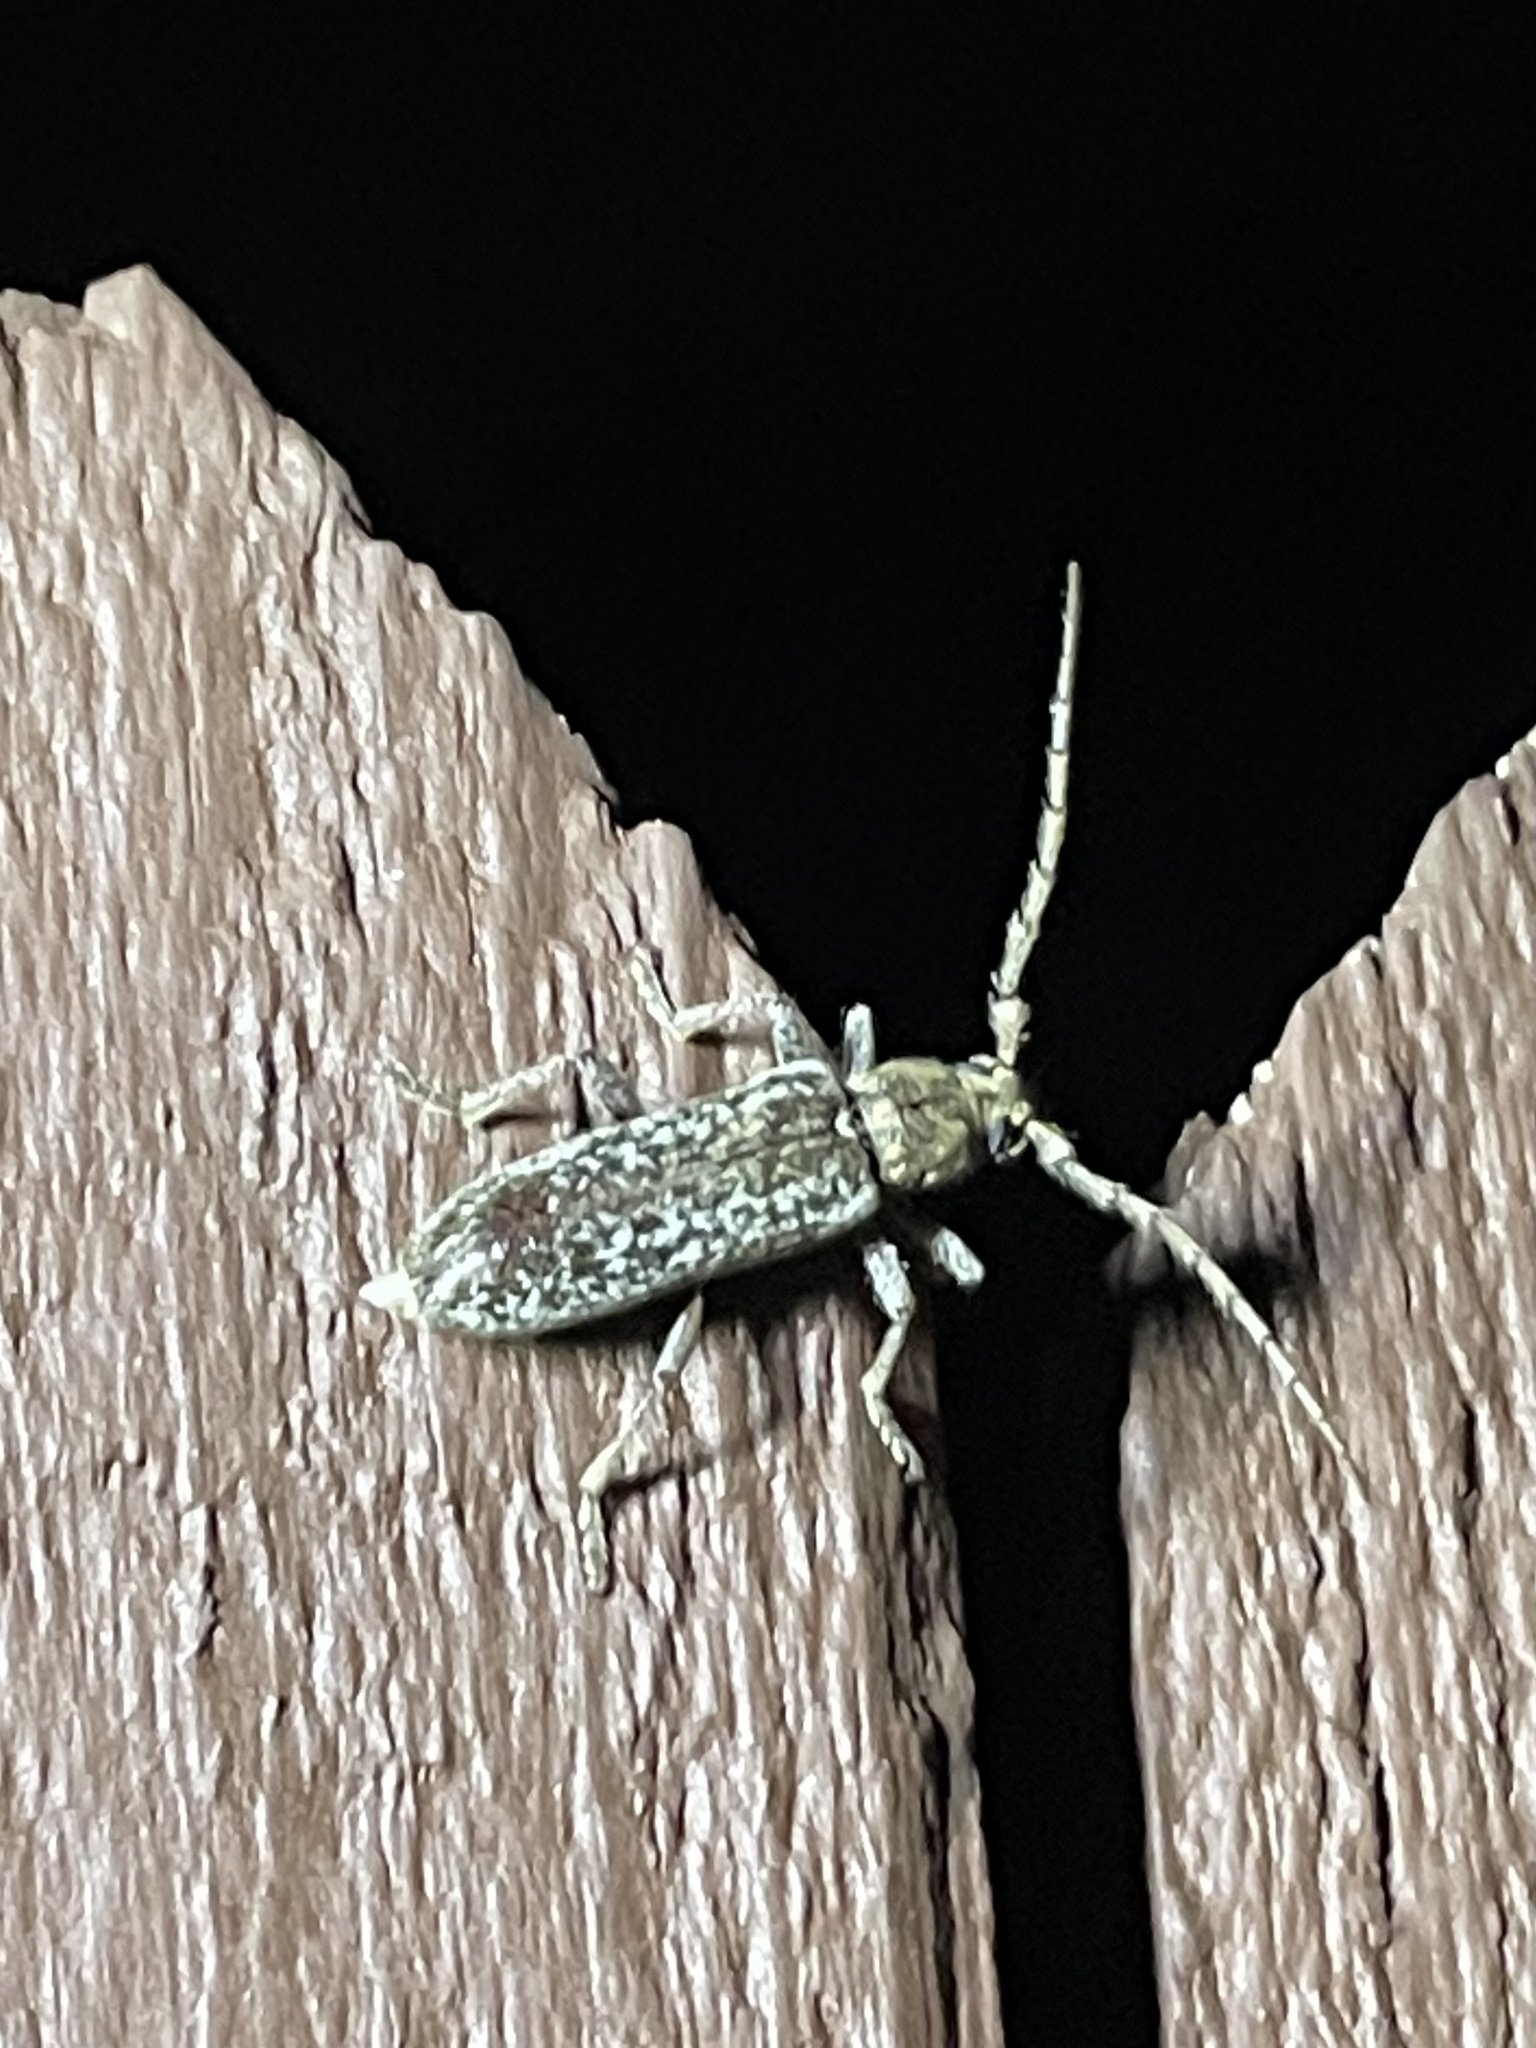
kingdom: Animalia
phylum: Arthropoda
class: Insecta
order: Coleoptera
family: Cerambycidae
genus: Anelaphus
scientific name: Anelaphus debilis
